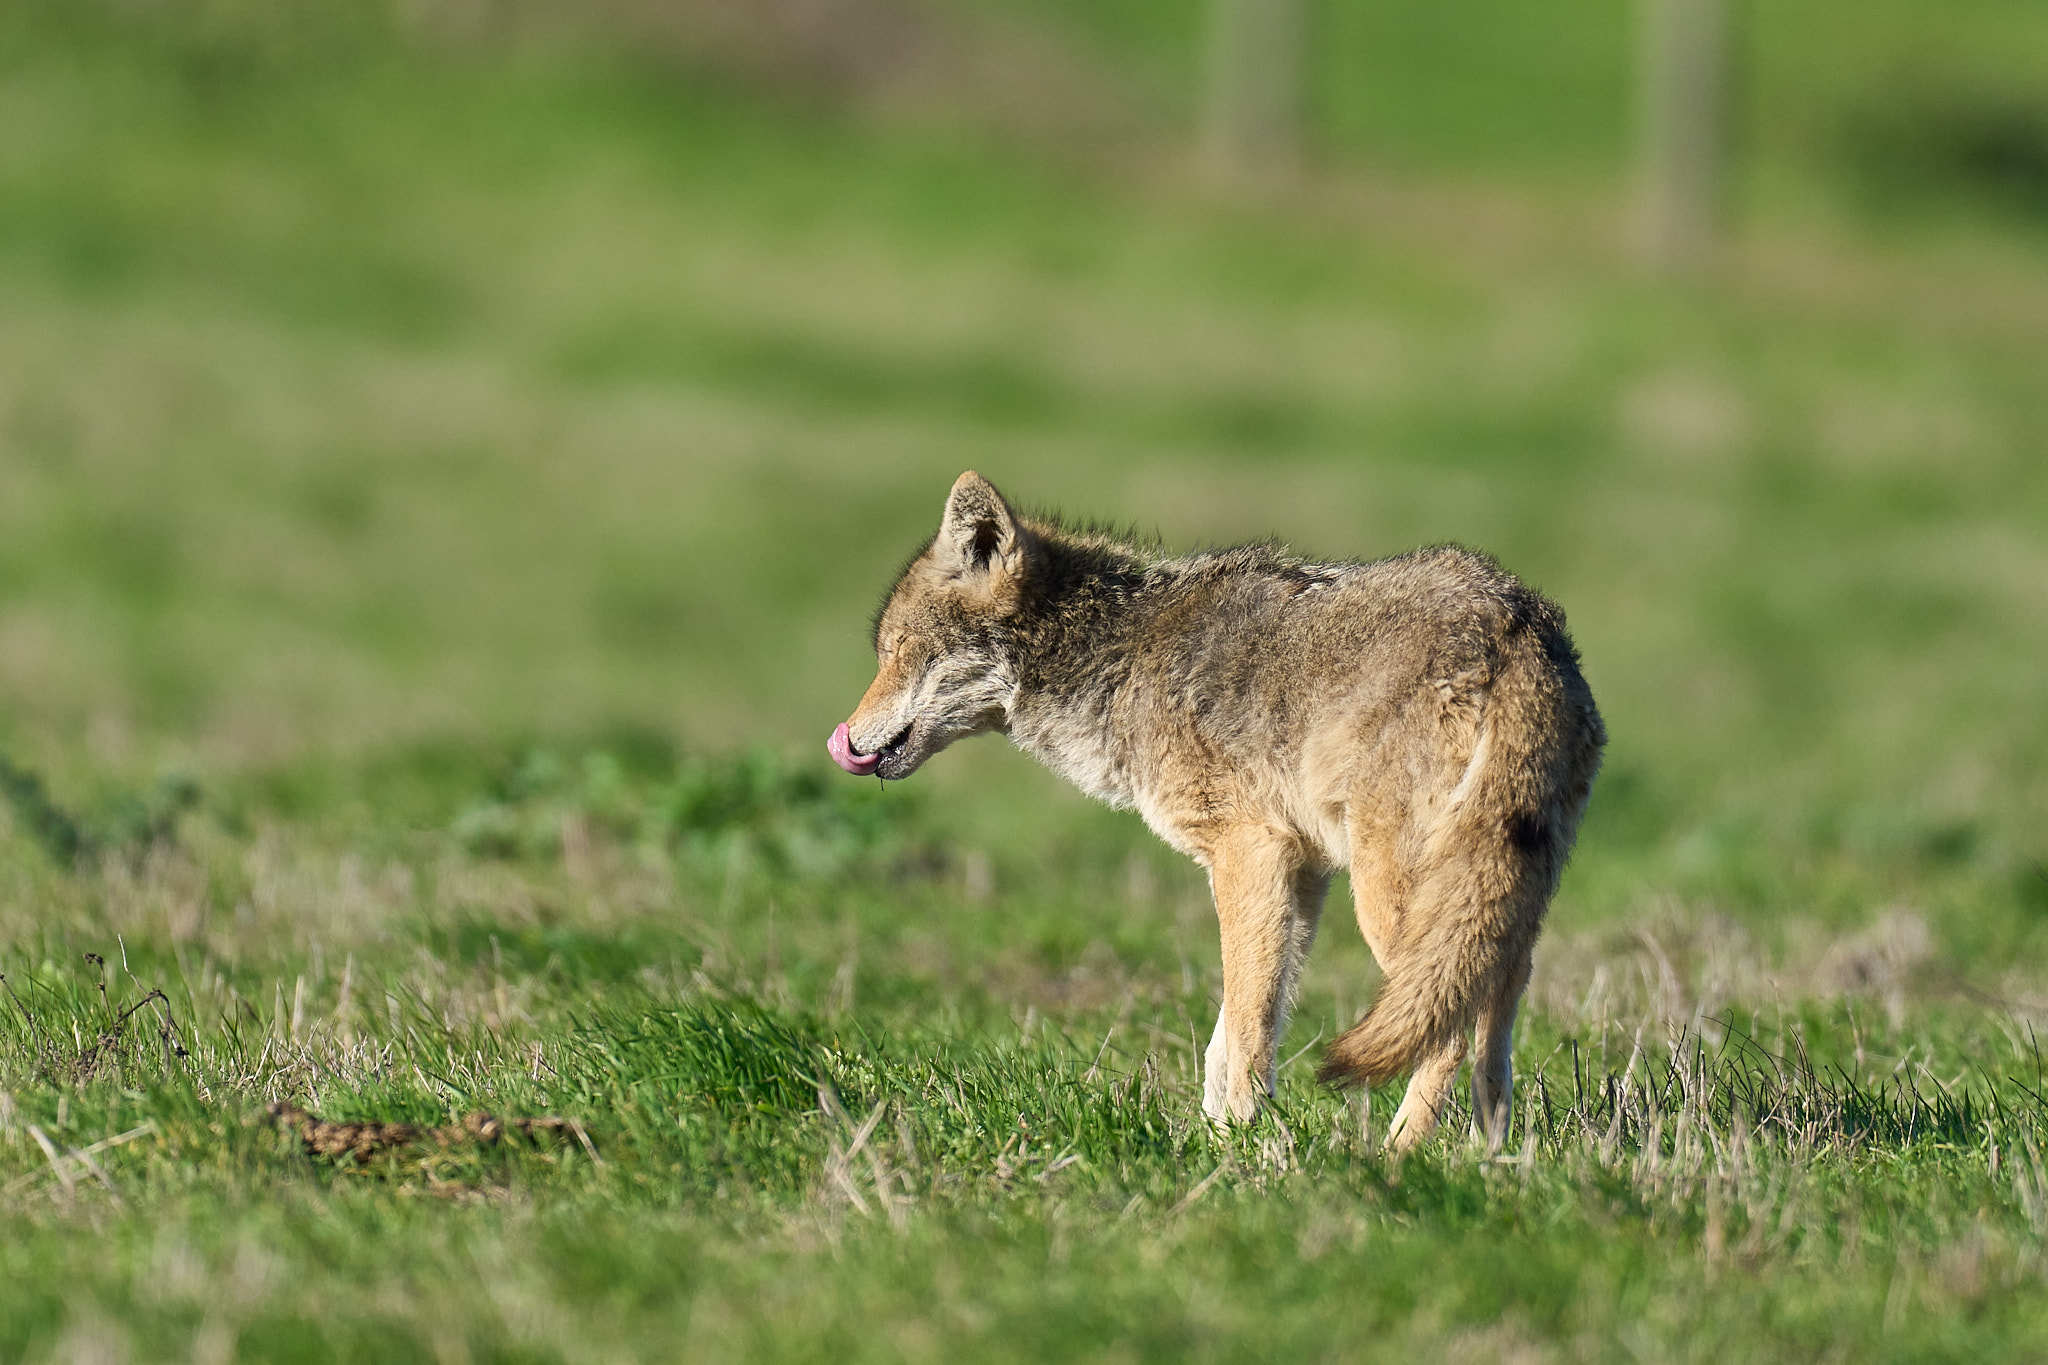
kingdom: Animalia
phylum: Chordata
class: Mammalia
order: Carnivora
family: Canidae
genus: Canis
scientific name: Canis latrans
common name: Coyote
